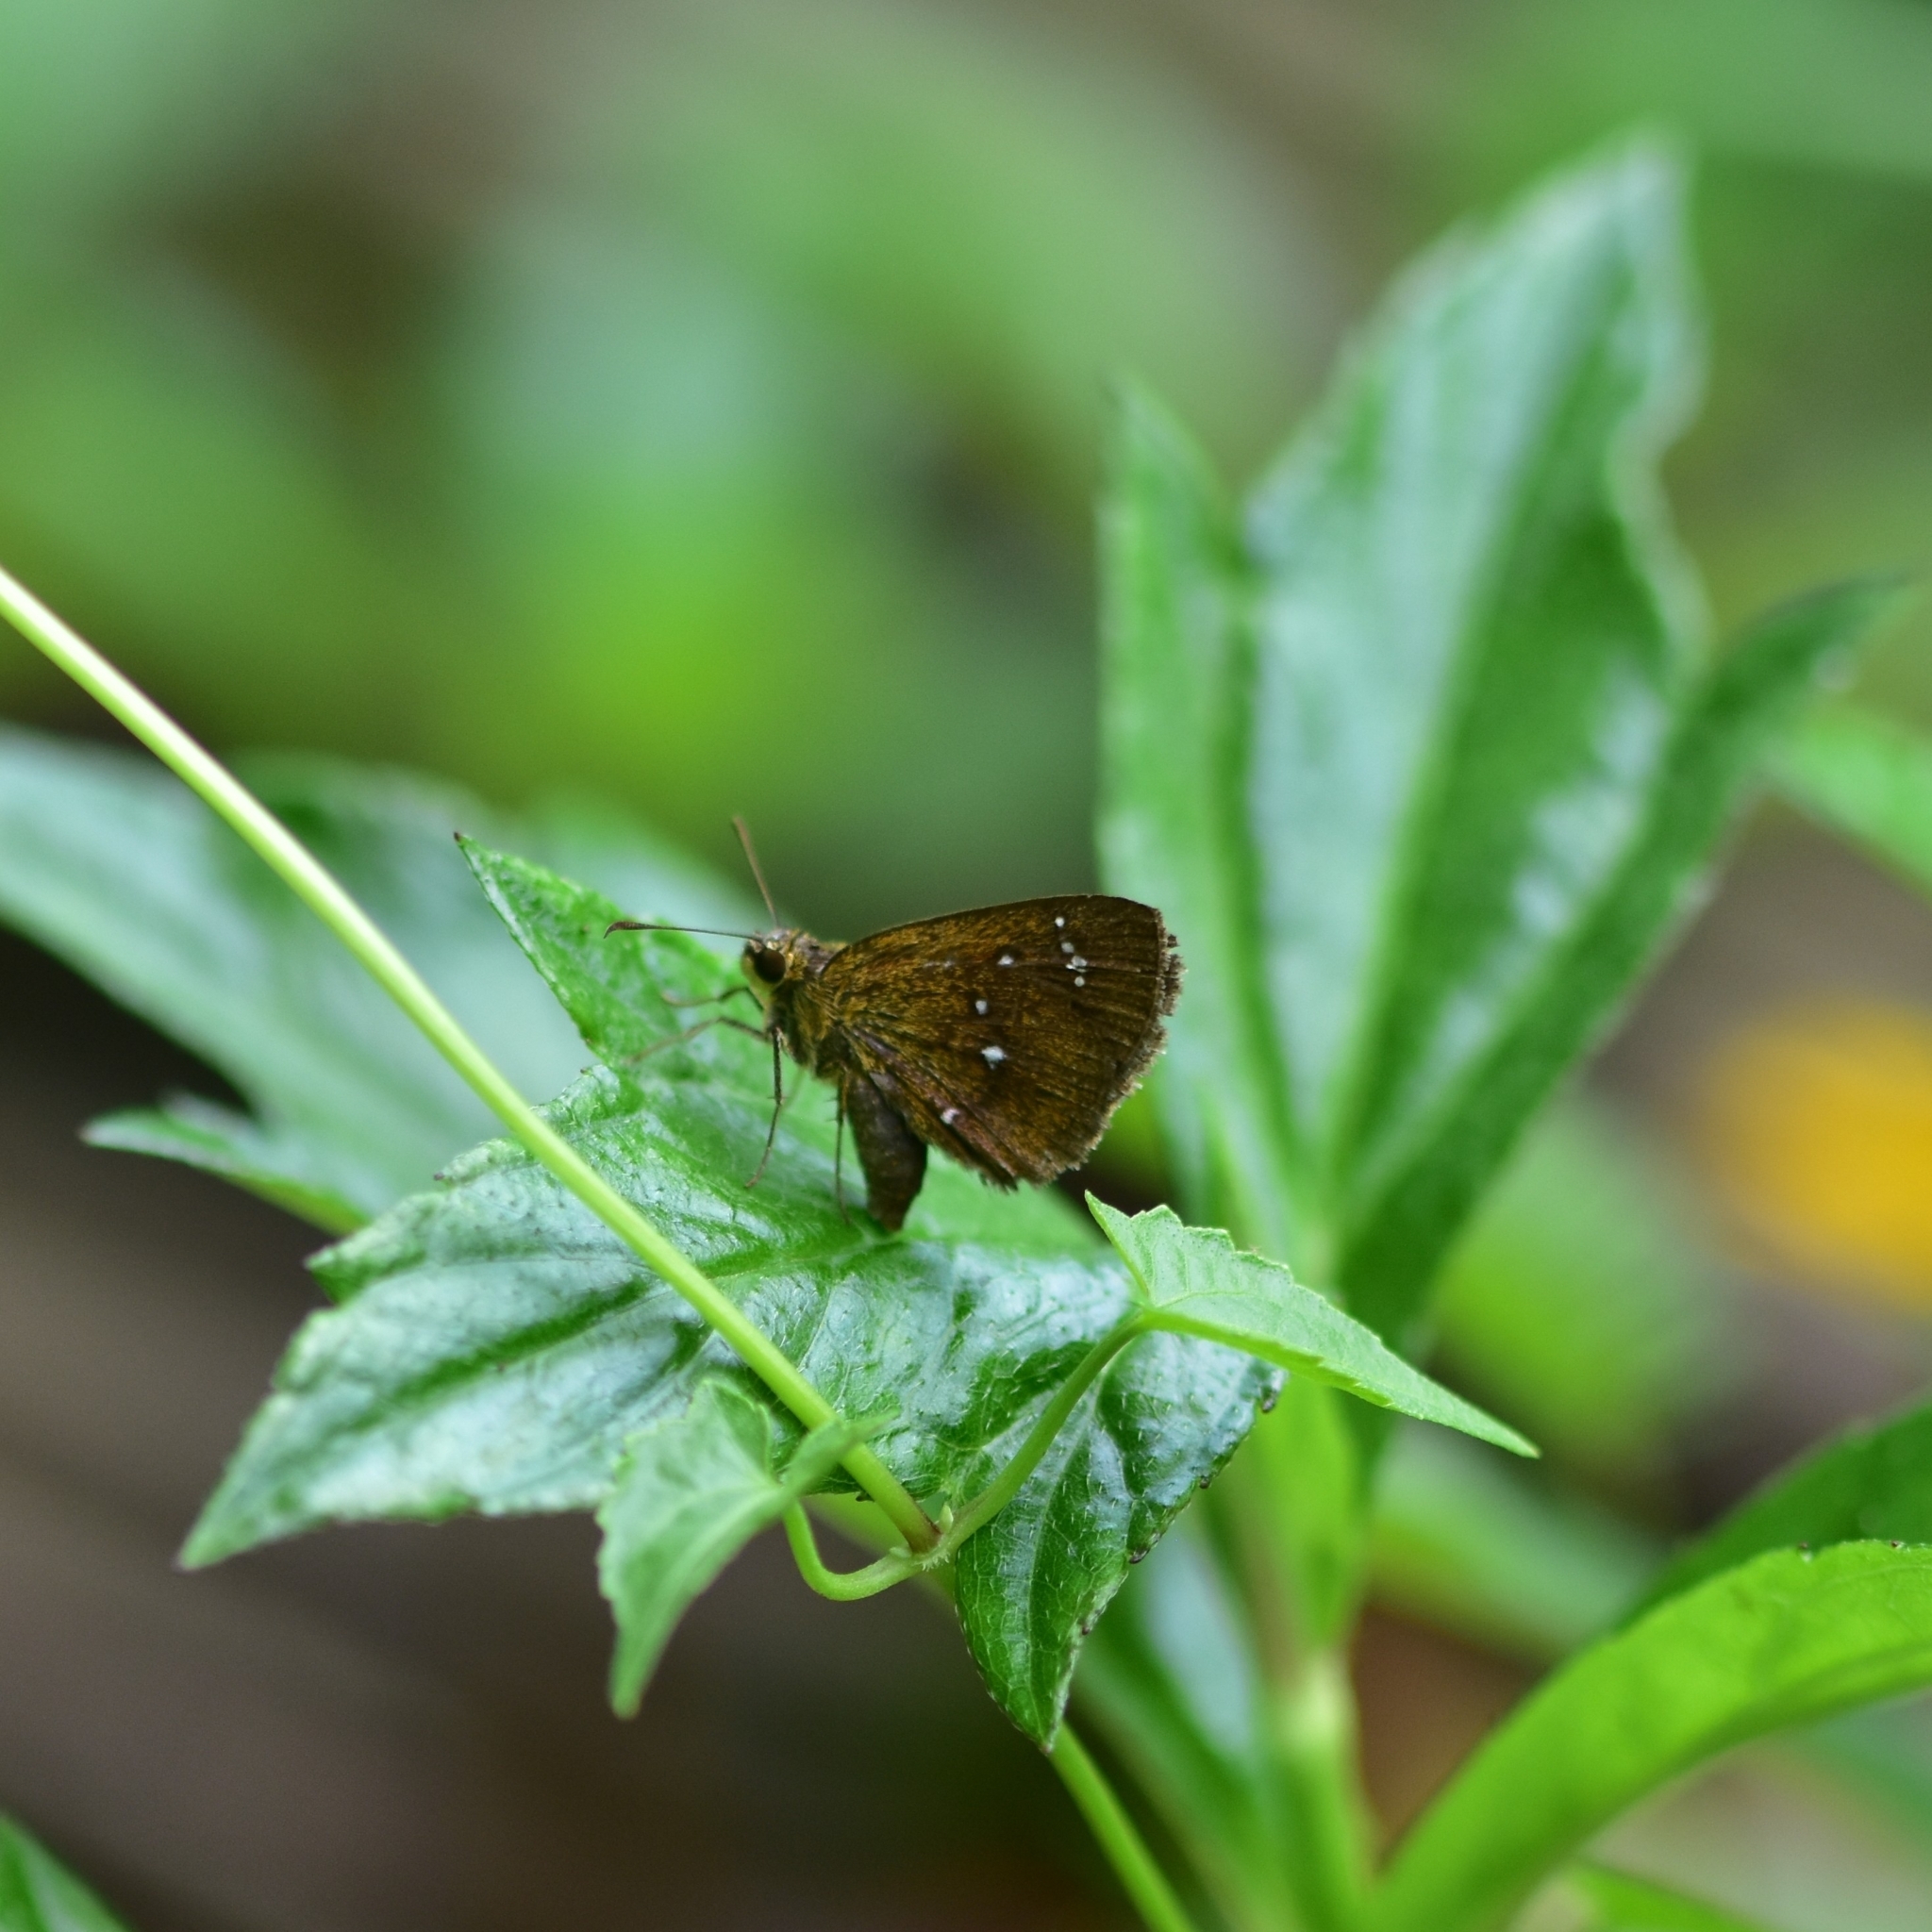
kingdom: Animalia
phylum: Arthropoda
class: Insecta
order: Lepidoptera
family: Hesperiidae
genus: Iambrix
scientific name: Iambrix salsala
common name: Chestnut bob
